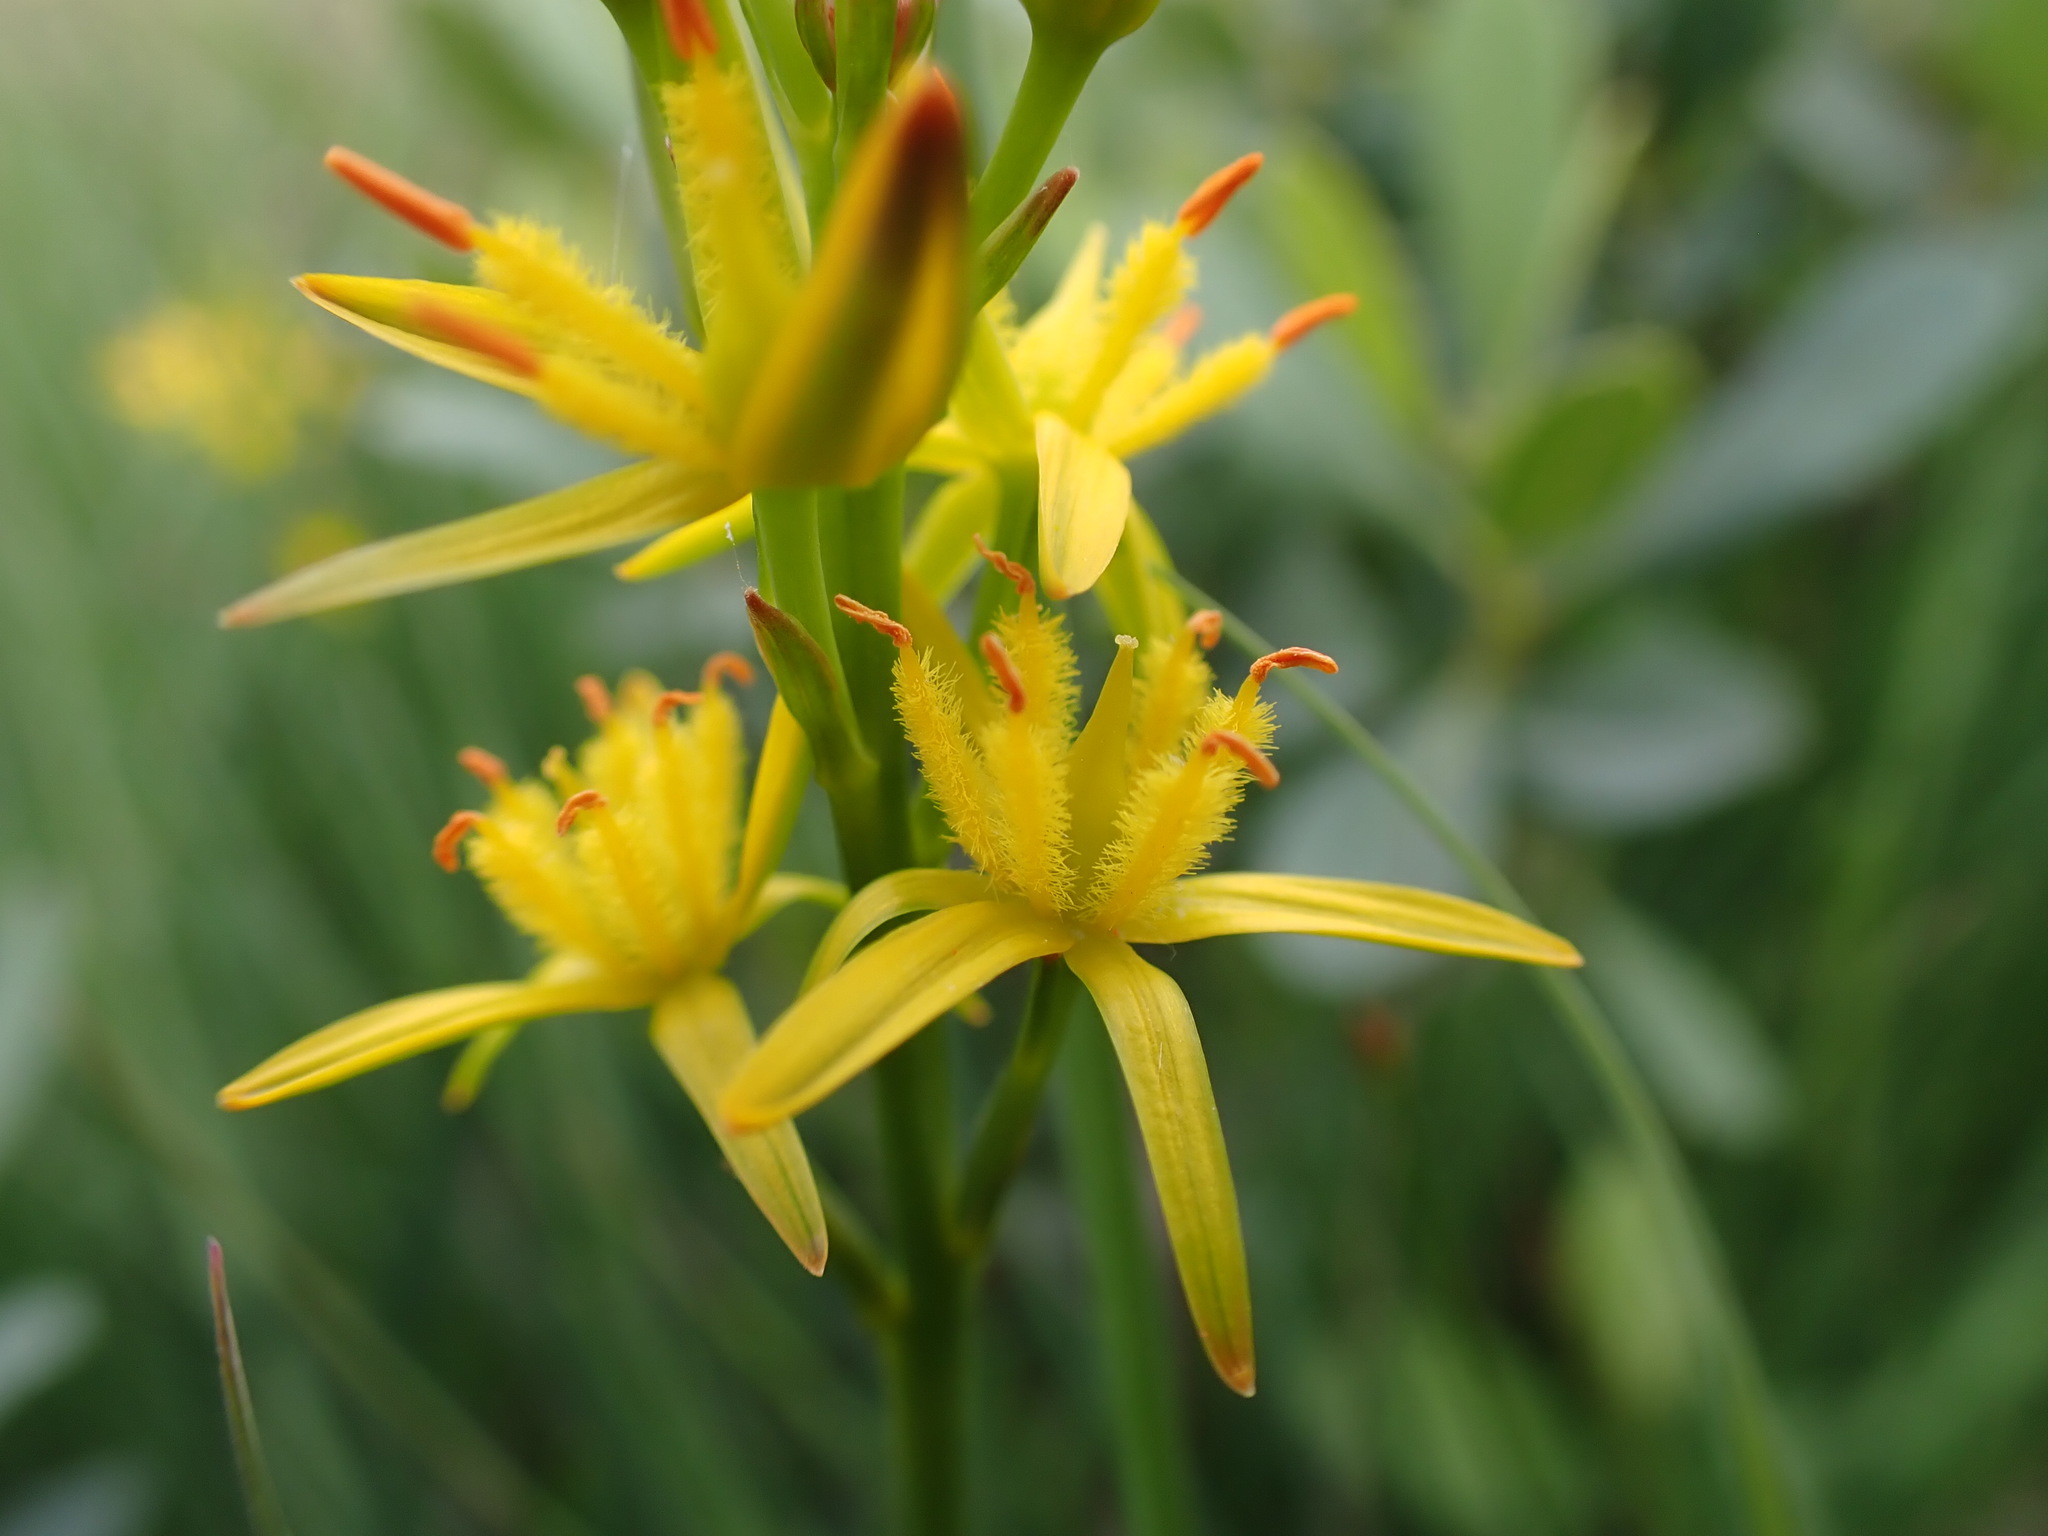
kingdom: Plantae
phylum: Tracheophyta
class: Liliopsida
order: Dioscoreales
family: Nartheciaceae
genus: Narthecium
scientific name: Narthecium ossifragum
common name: Bog asphodel
